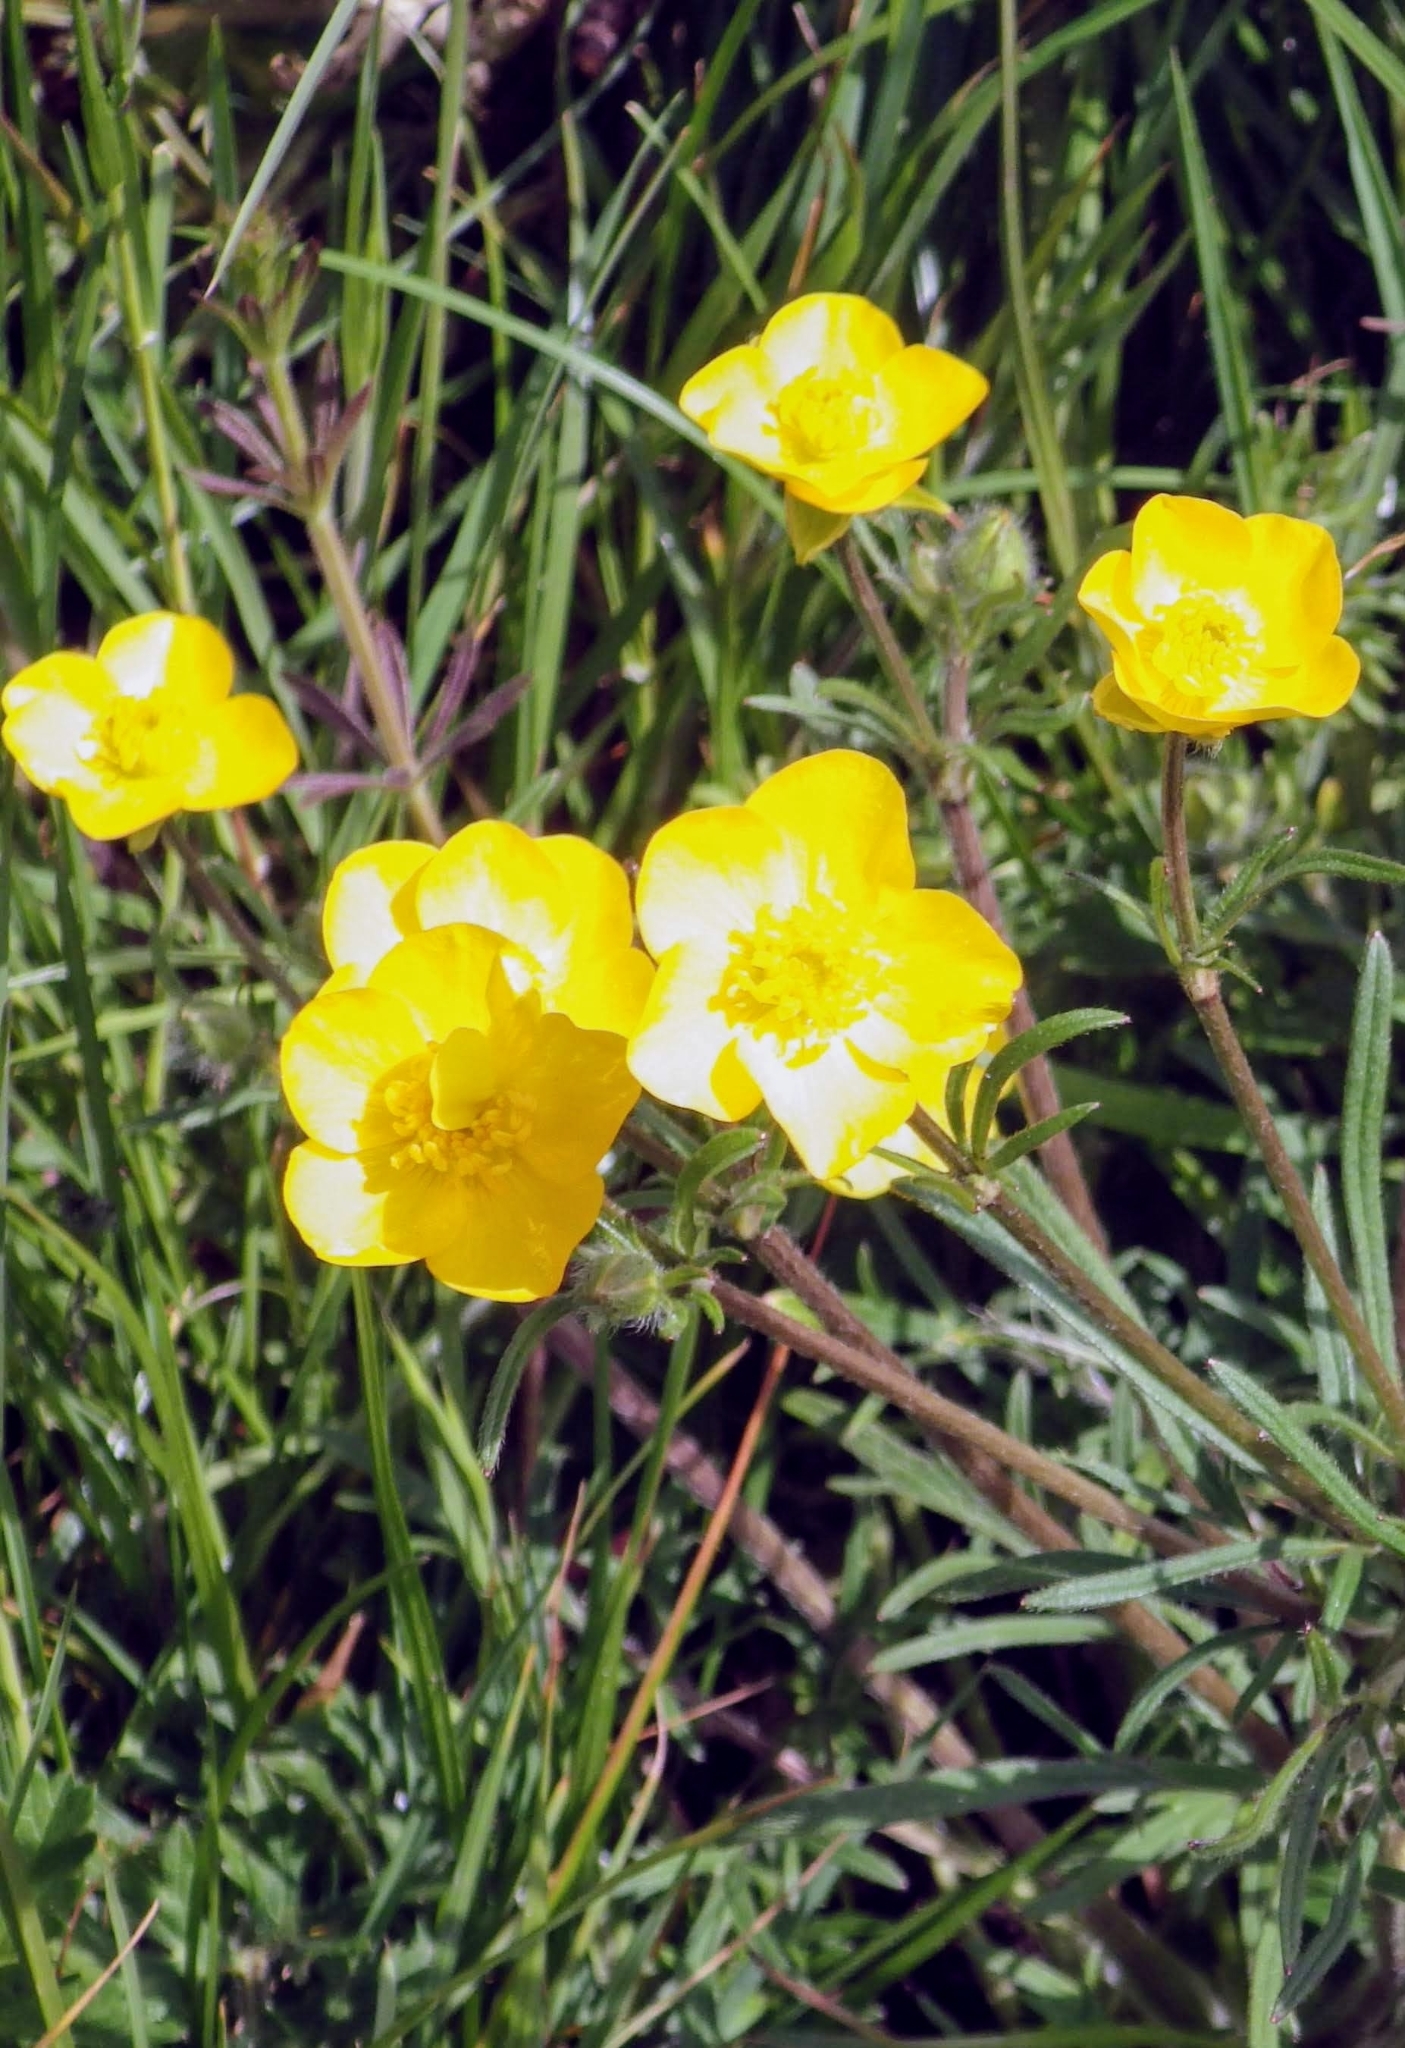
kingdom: Plantae
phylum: Tracheophyta
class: Magnoliopsida
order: Ranunculales
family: Ranunculaceae
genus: Ranunculus
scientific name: Ranunculus acris
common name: Meadow buttercup
